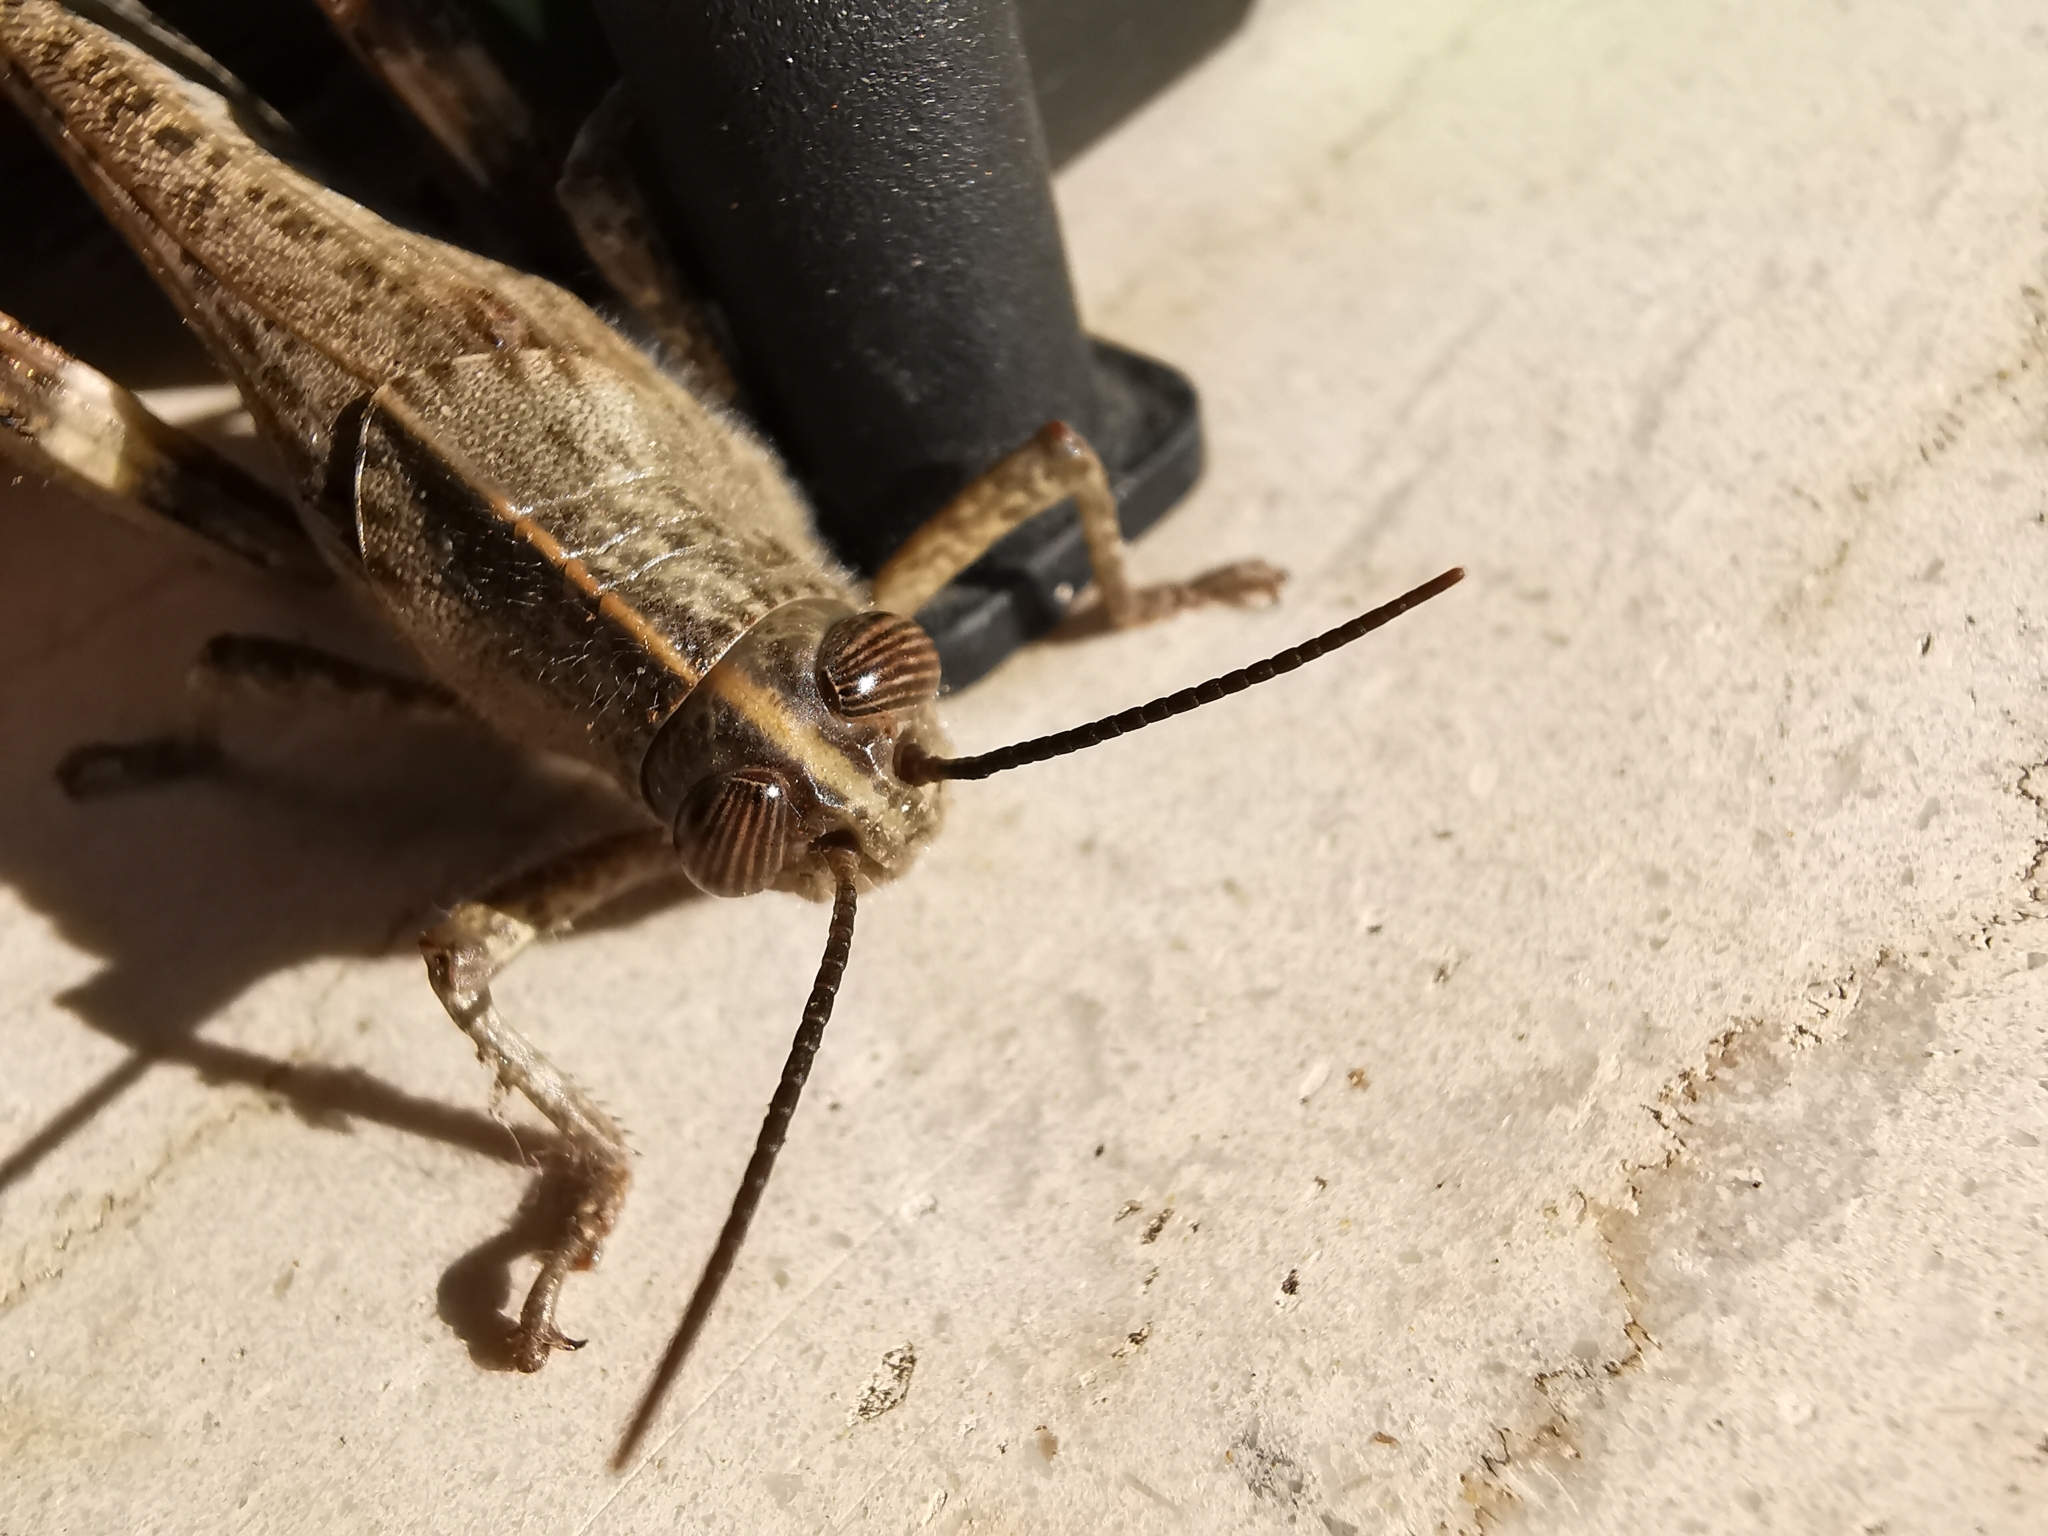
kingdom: Animalia
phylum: Arthropoda
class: Insecta
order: Orthoptera
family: Acrididae
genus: Anacridium
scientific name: Anacridium aegyptium
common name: Egyptian grasshopper
